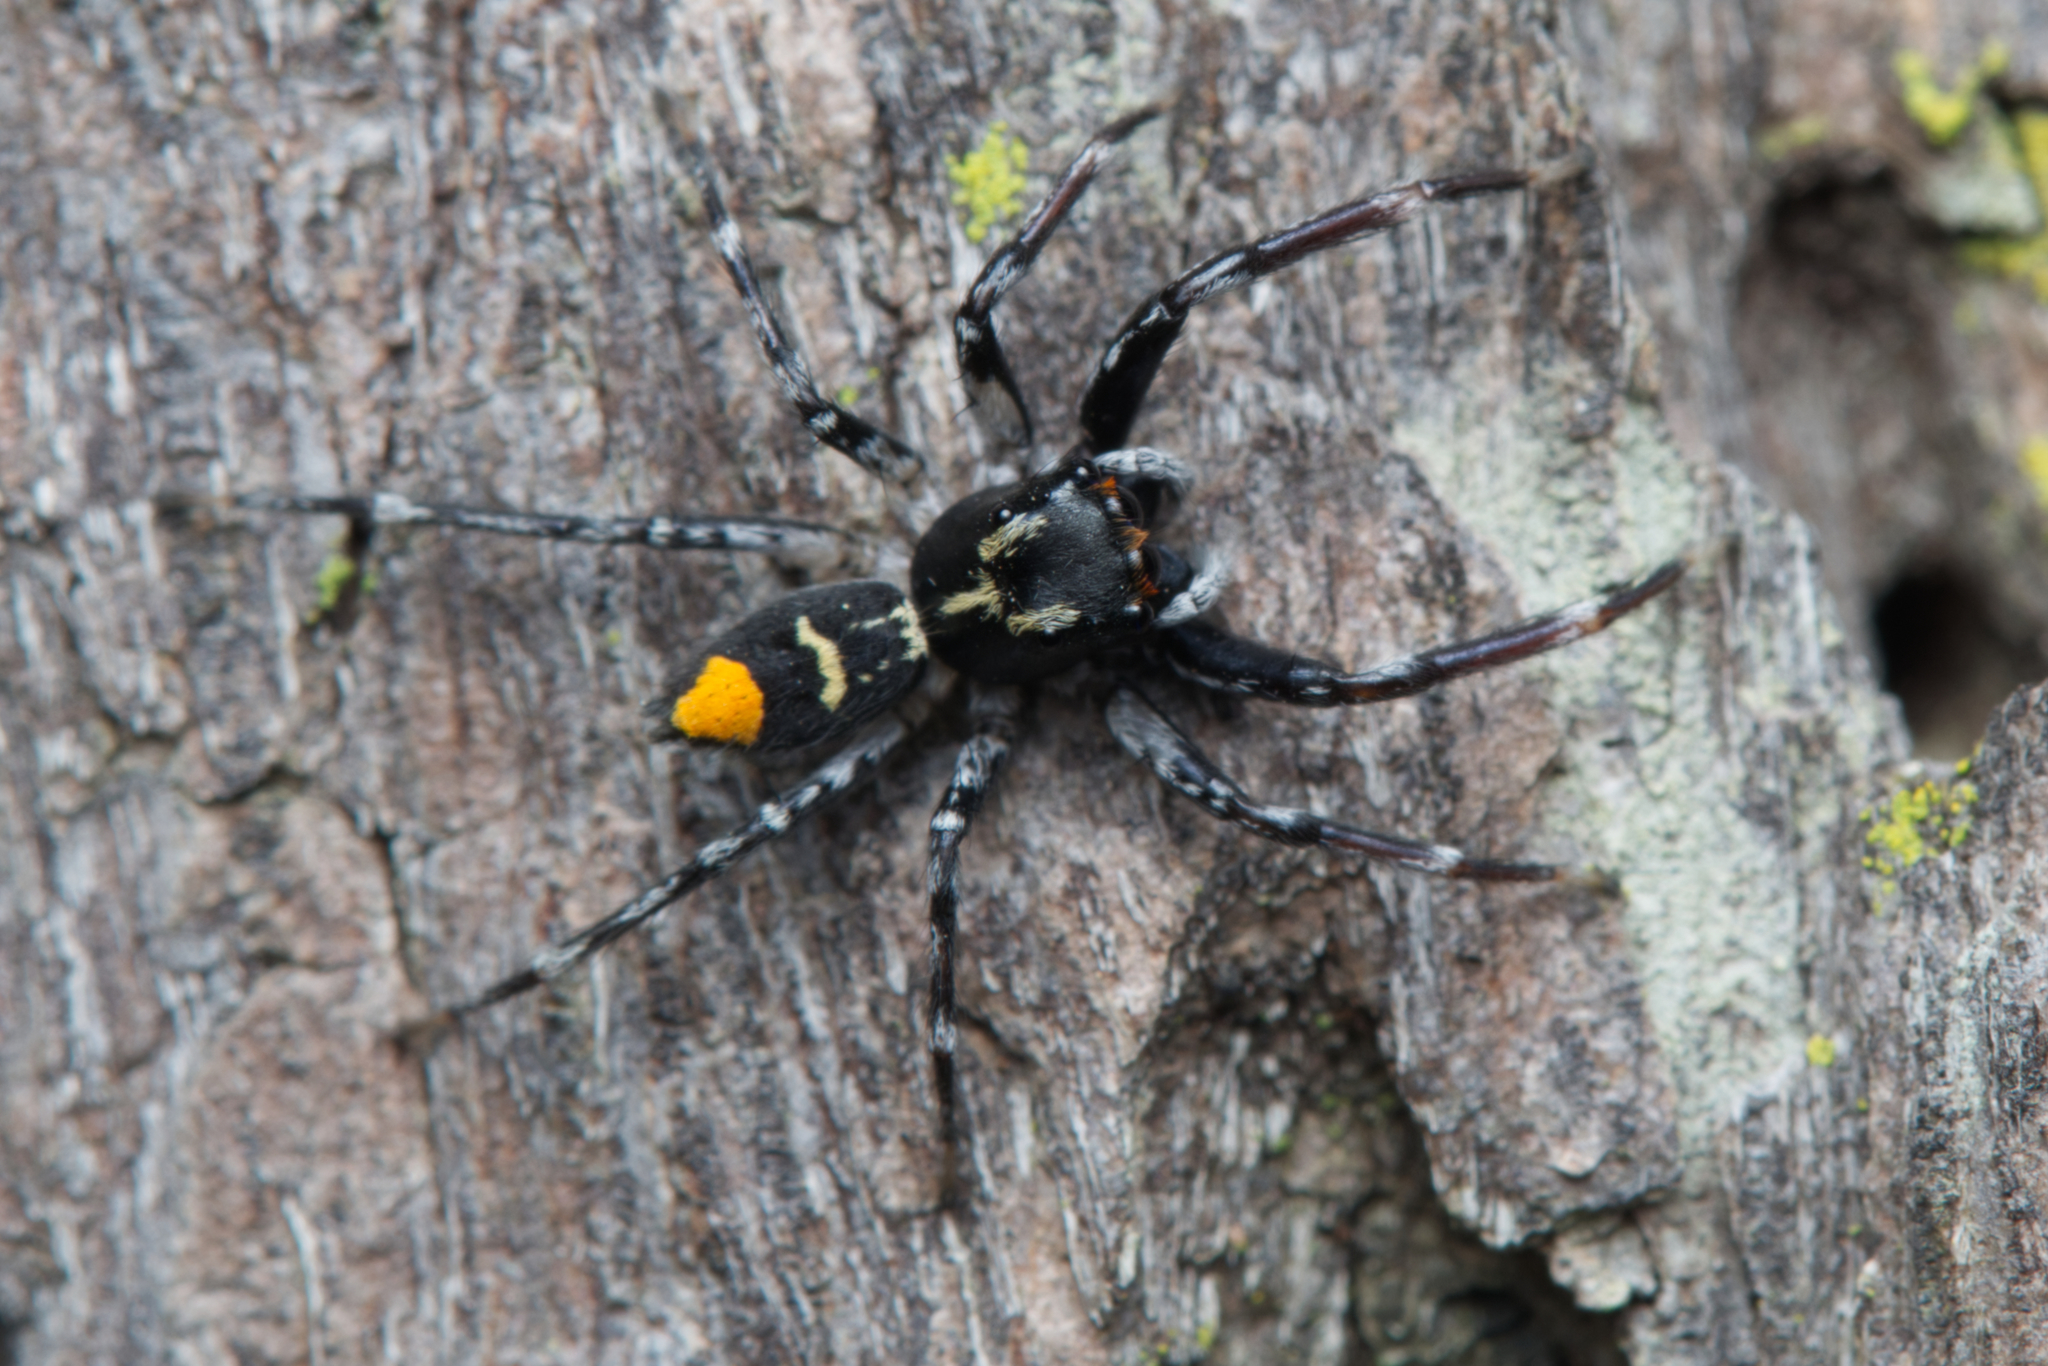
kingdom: Animalia
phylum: Arthropoda
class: Arachnida
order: Araneae
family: Salticidae
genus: Astia
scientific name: Astia
